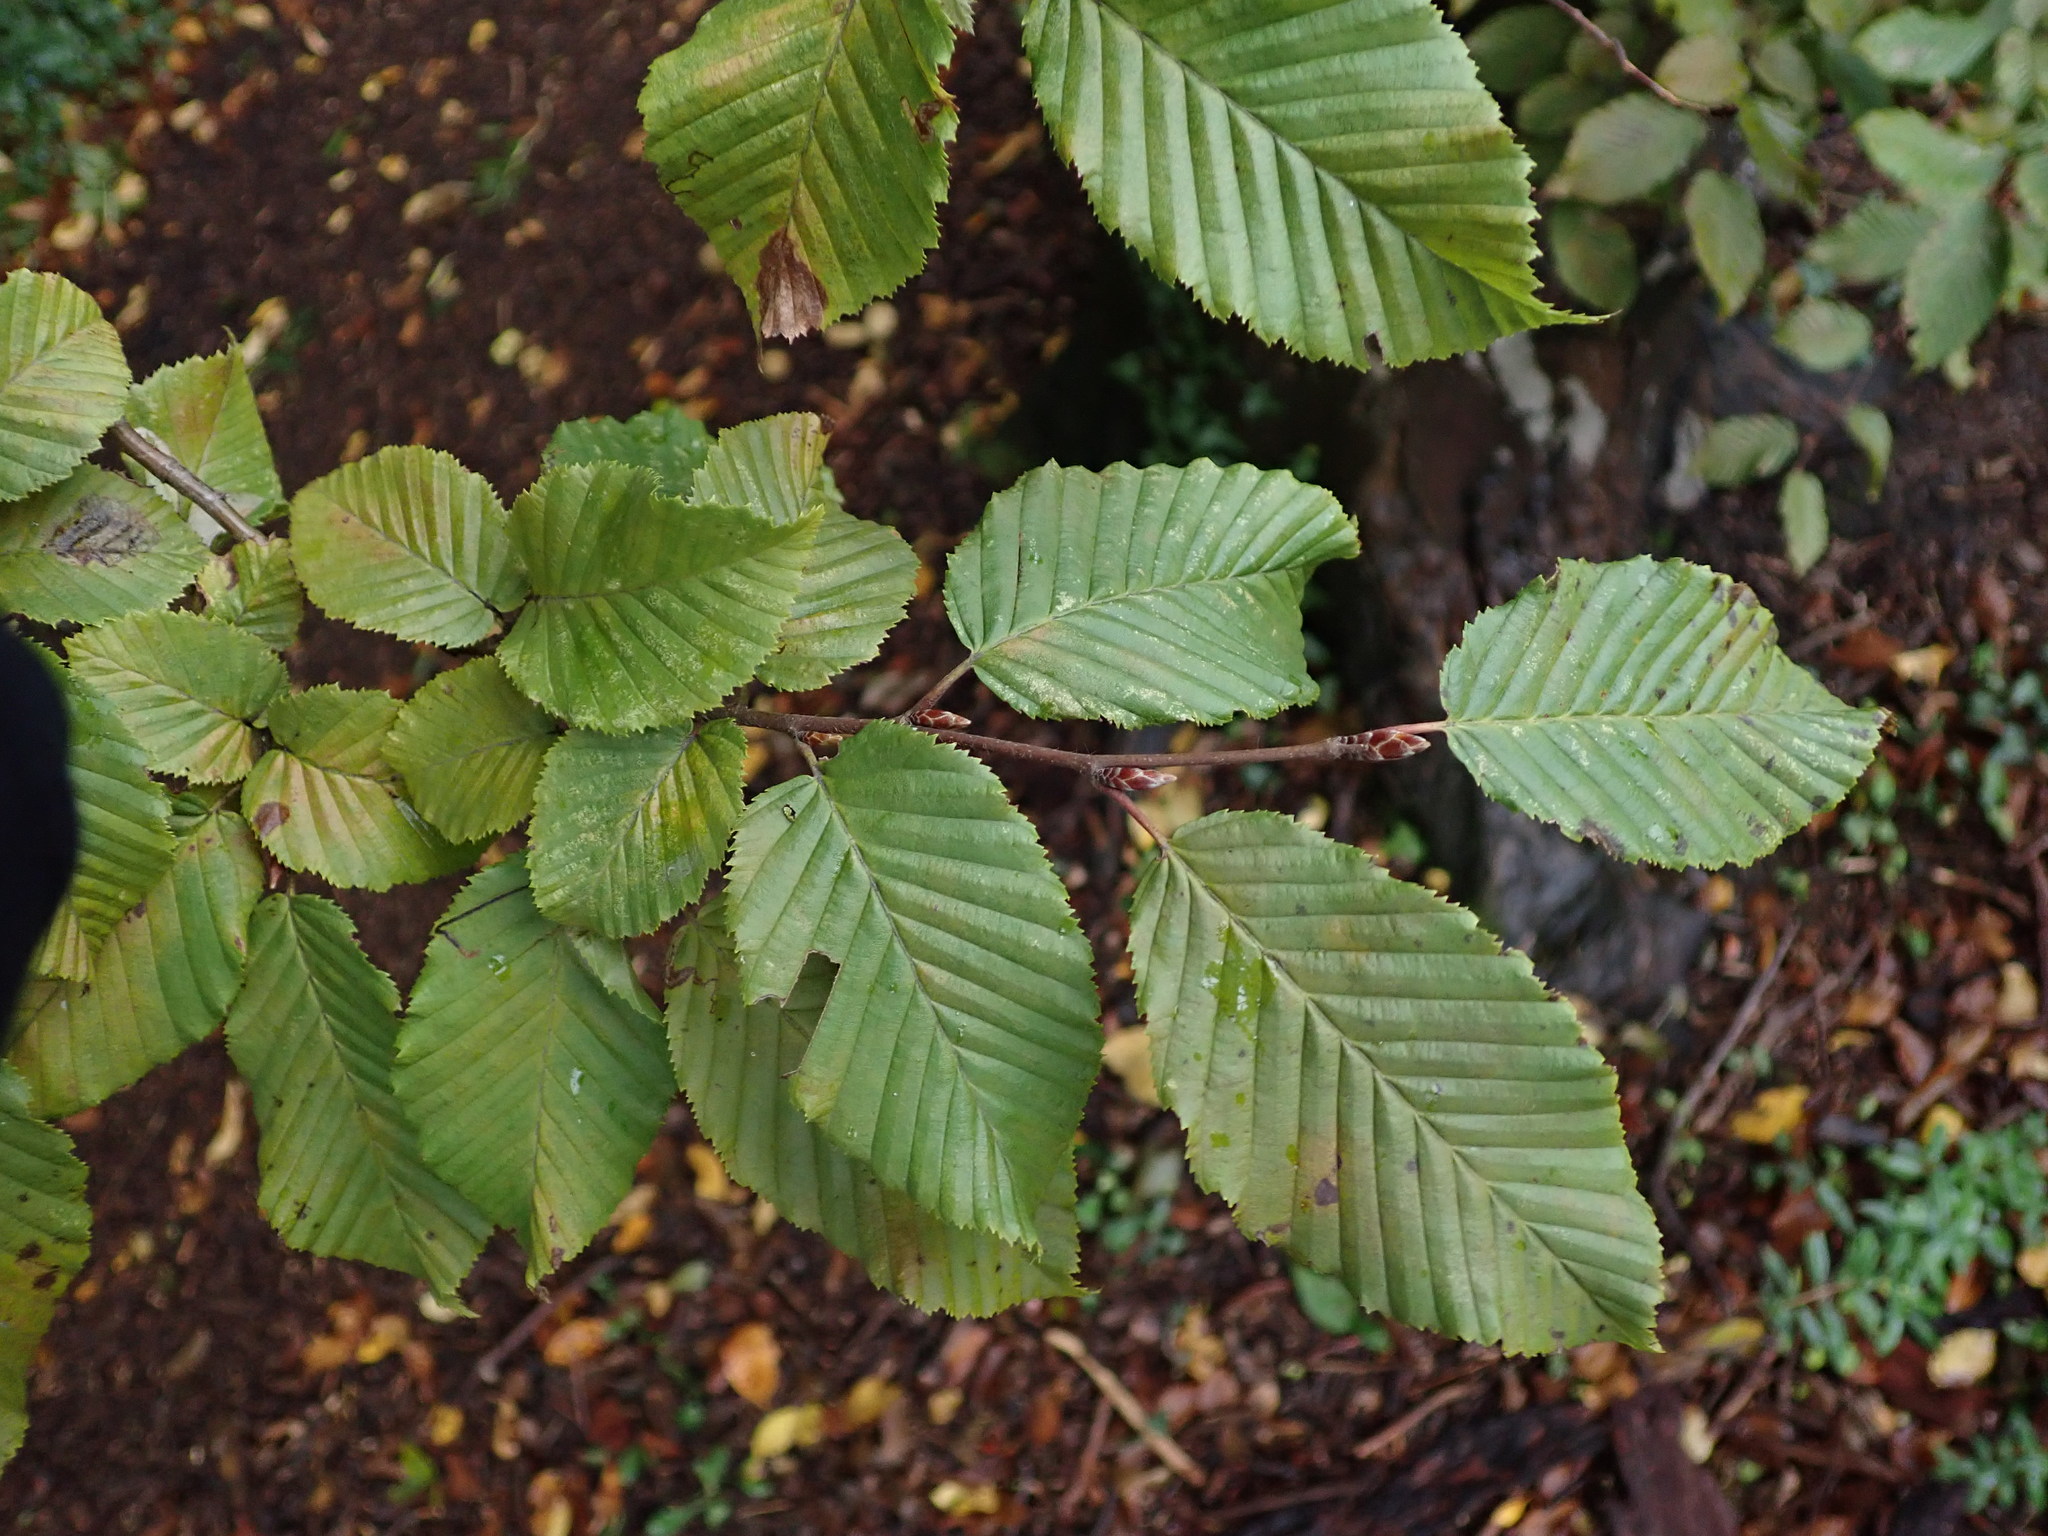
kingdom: Plantae
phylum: Tracheophyta
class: Magnoliopsida
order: Fagales
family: Betulaceae
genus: Carpinus
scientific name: Carpinus betulus
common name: Hornbeam
